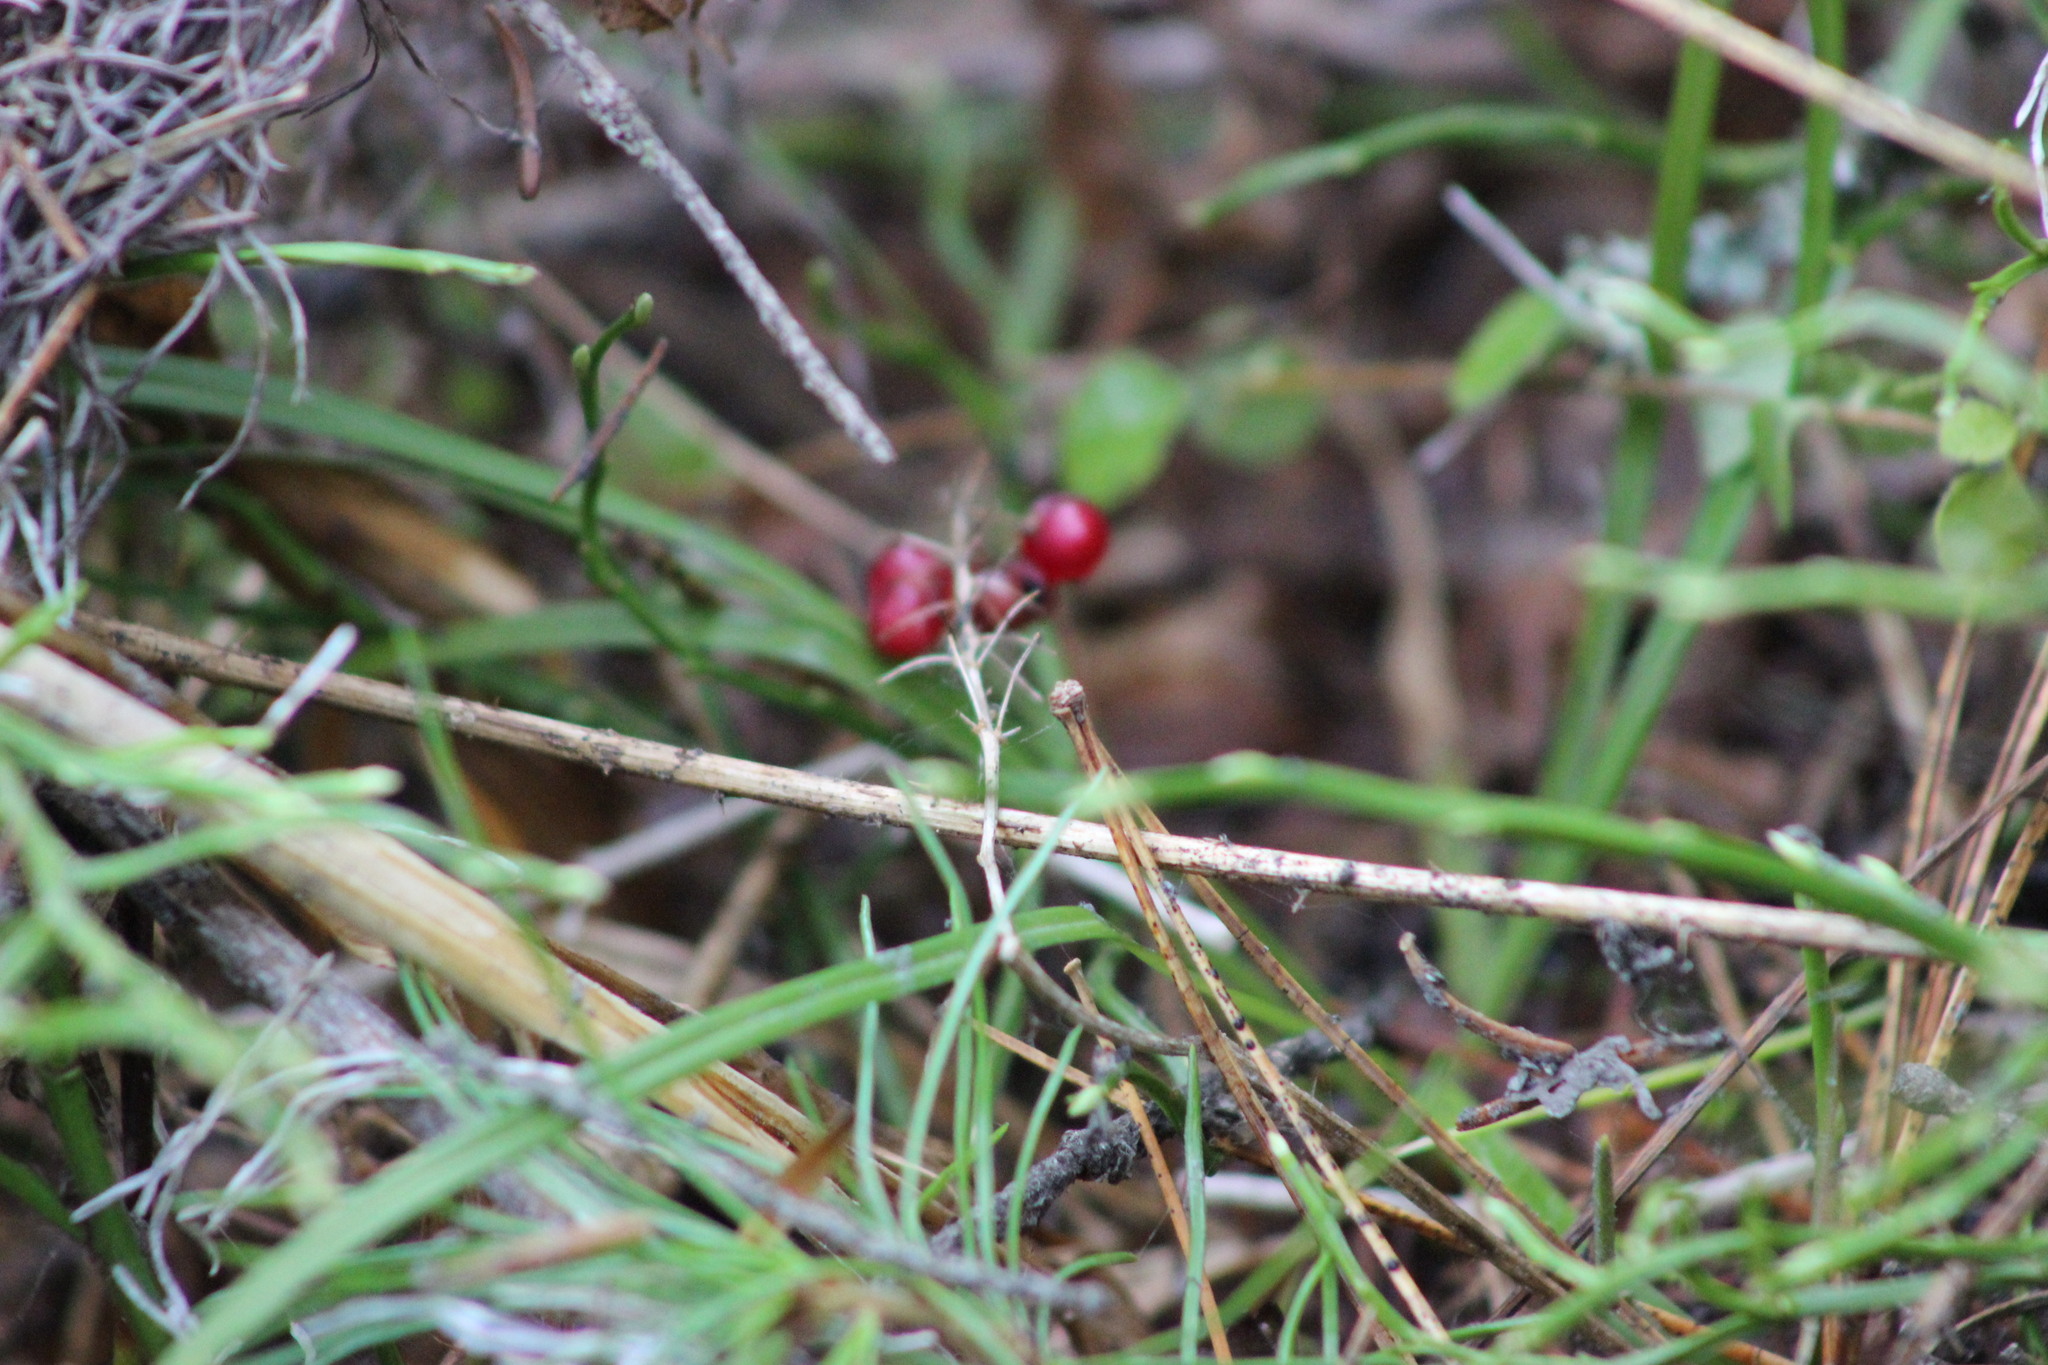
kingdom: Plantae
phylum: Tracheophyta
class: Liliopsida
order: Asparagales
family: Asparagaceae
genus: Maianthemum
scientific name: Maianthemum bifolium
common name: May lily
